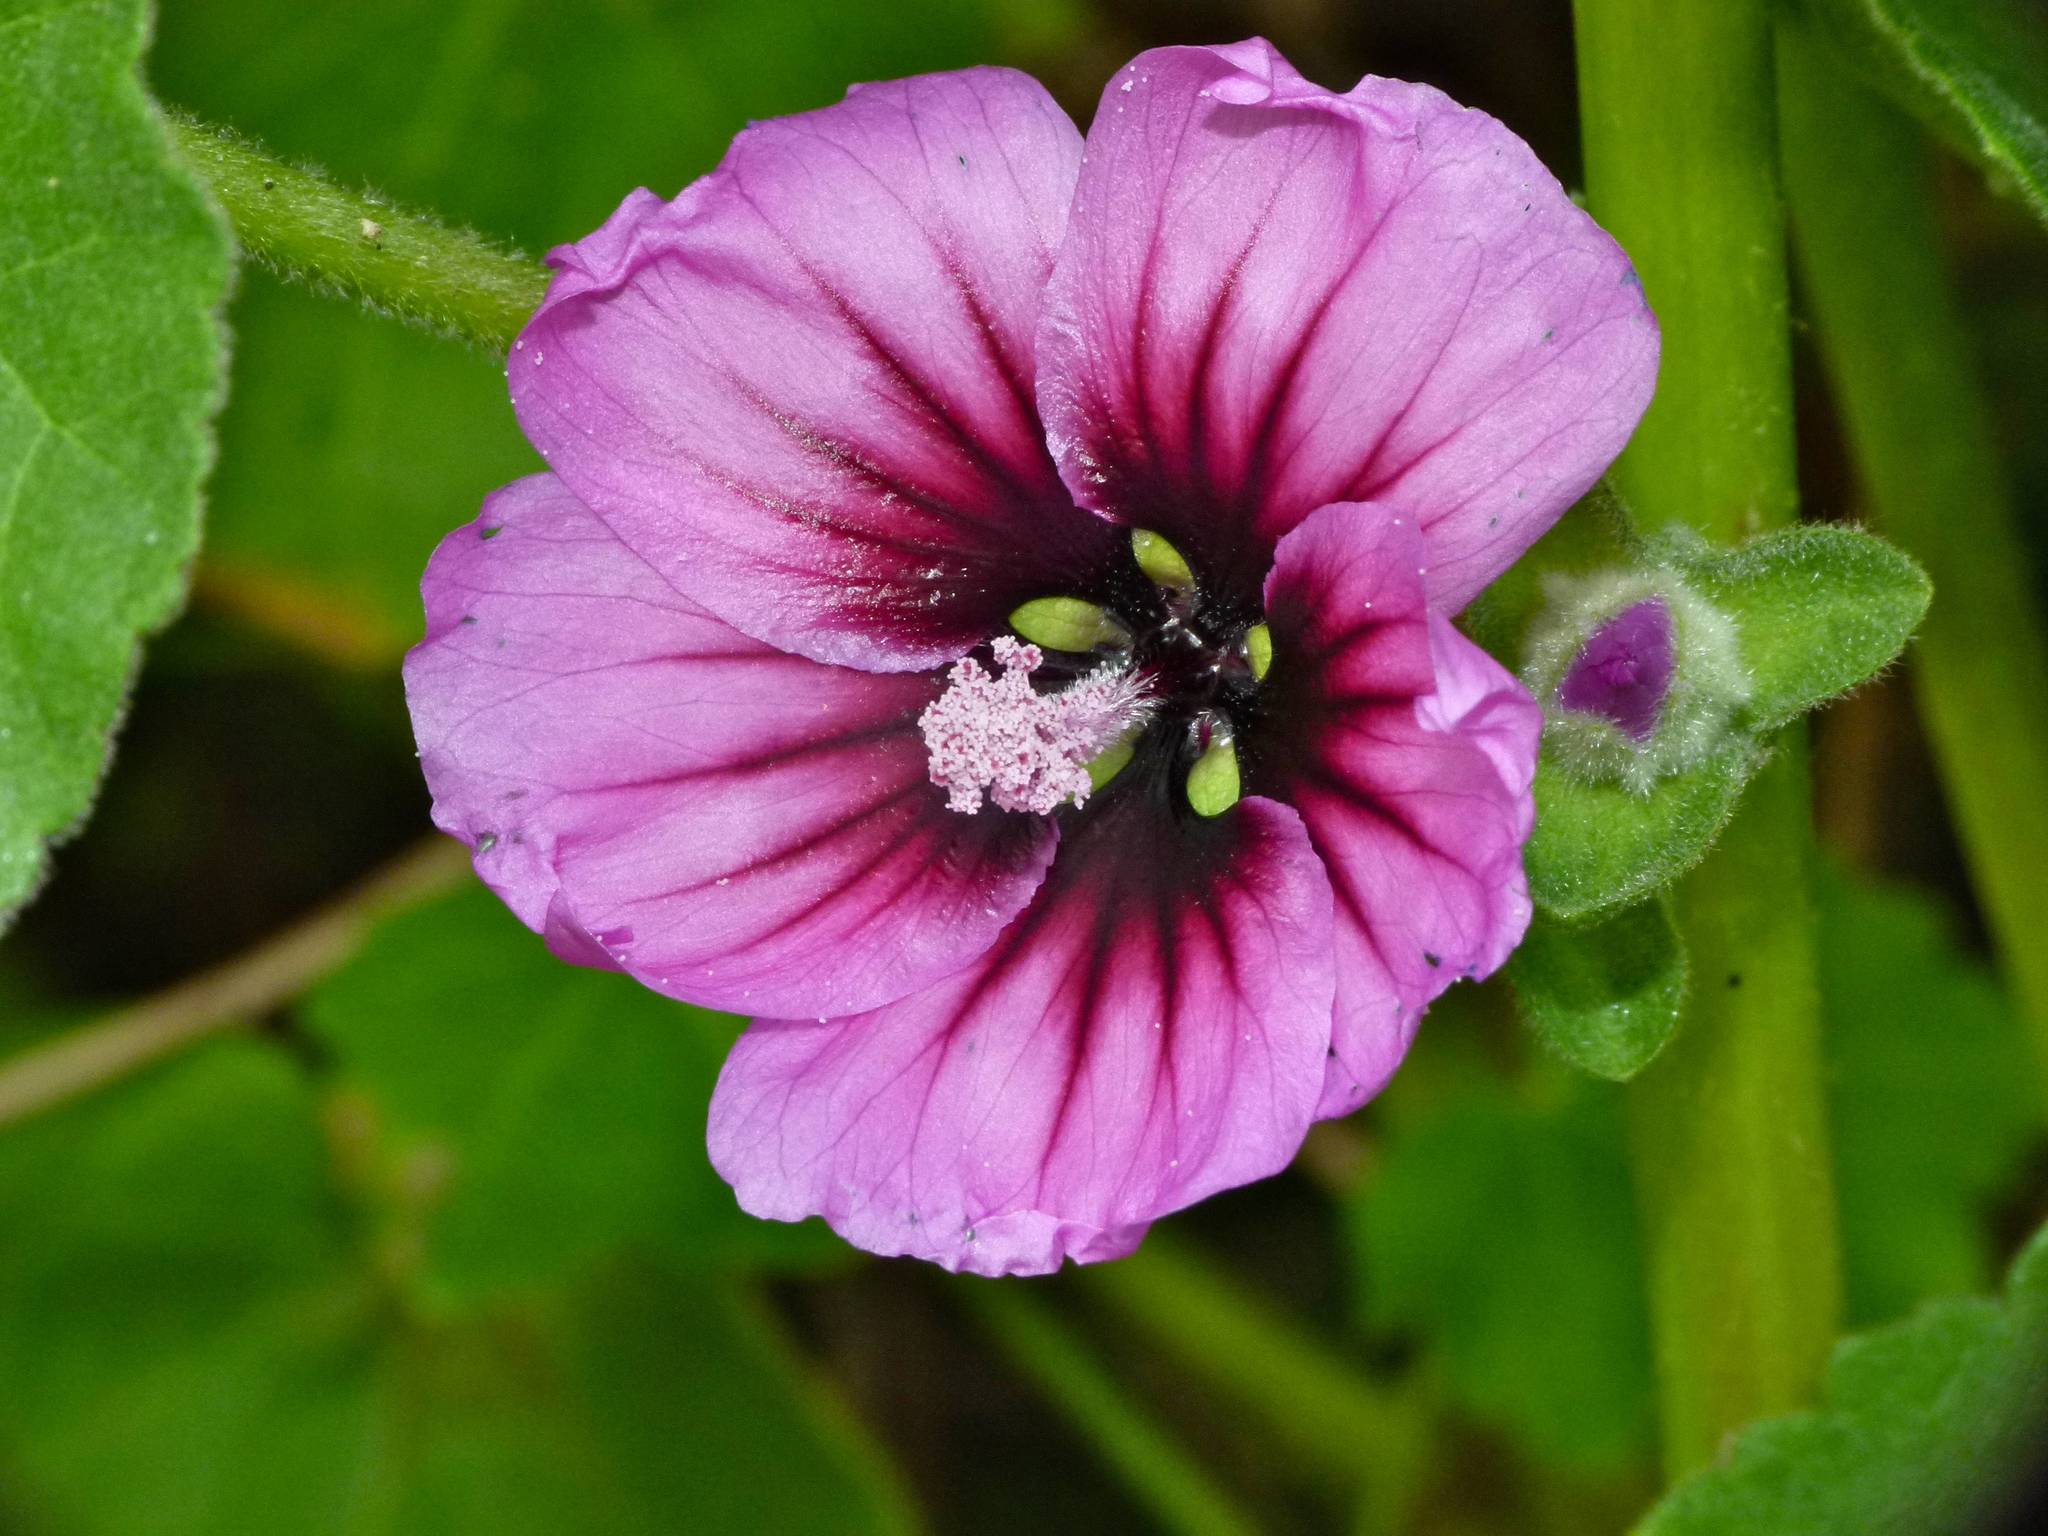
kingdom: Plantae
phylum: Tracheophyta
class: Magnoliopsida
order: Malvales
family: Malvaceae
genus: Malva
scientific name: Malva arborea
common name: Tree mallow
